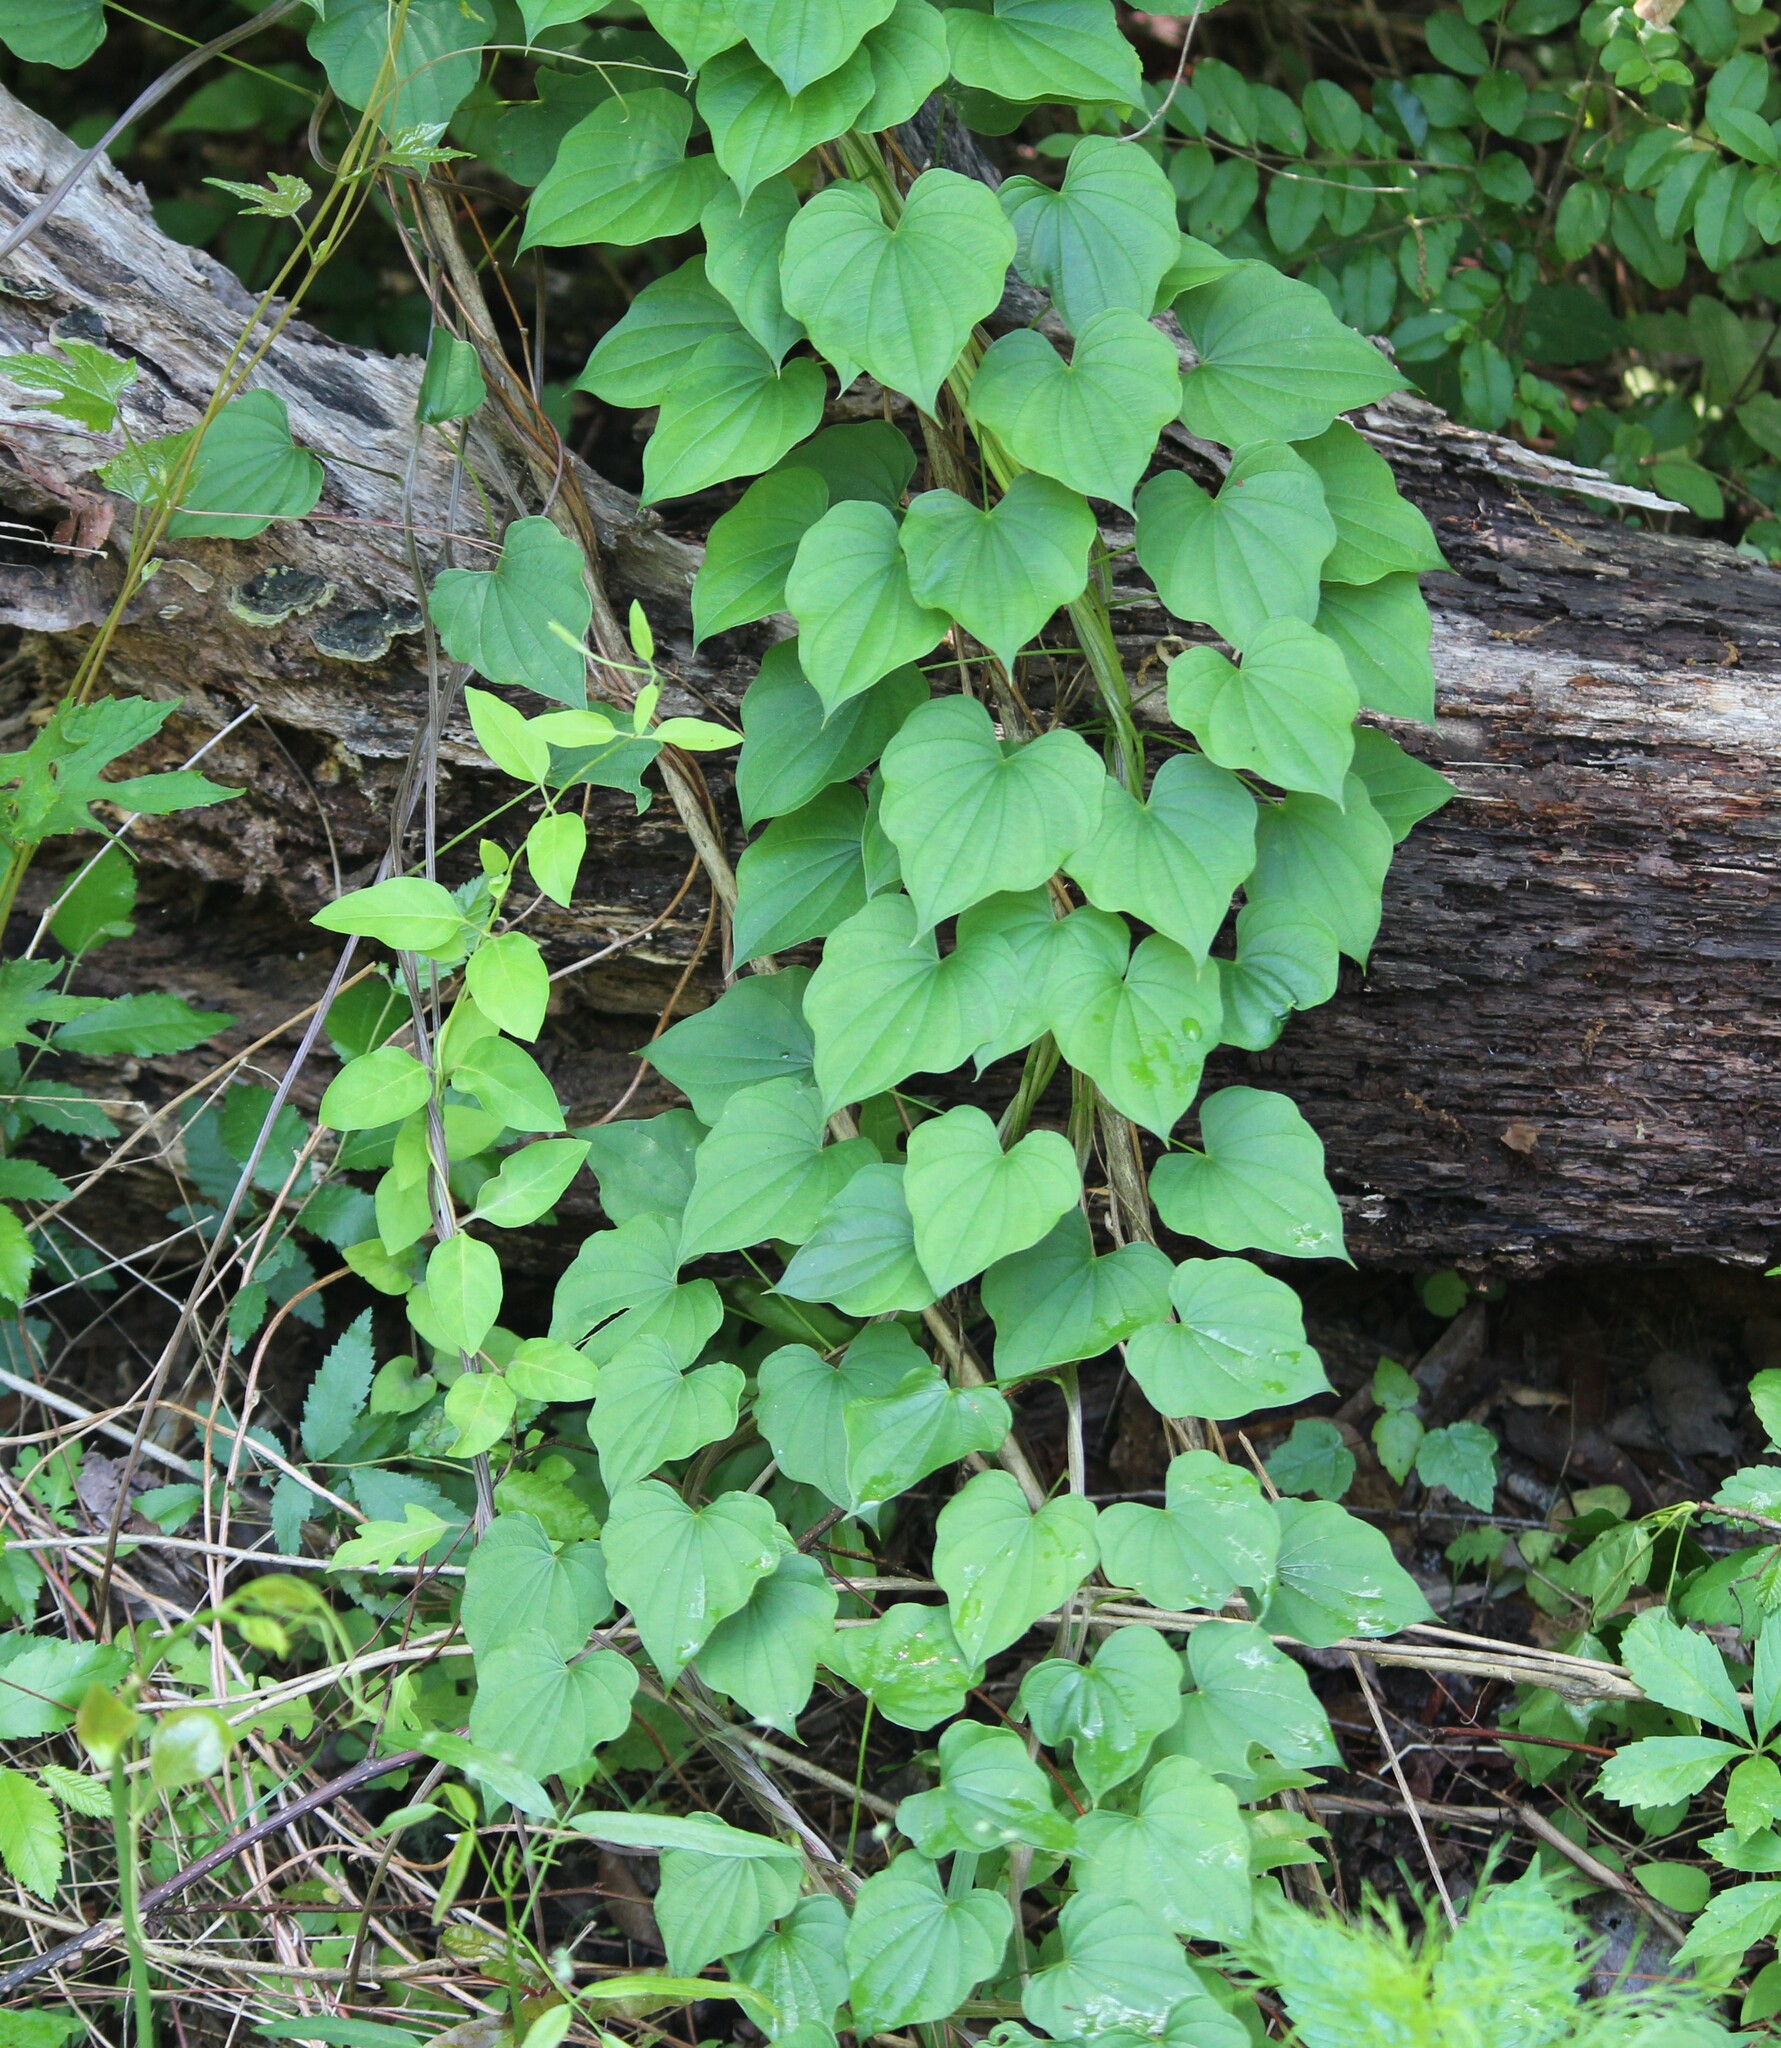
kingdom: Plantae
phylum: Tracheophyta
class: Liliopsida
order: Dioscoreales
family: Dioscoreaceae
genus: Dioscorea
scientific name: Dioscorea villosa
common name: Wild yam
